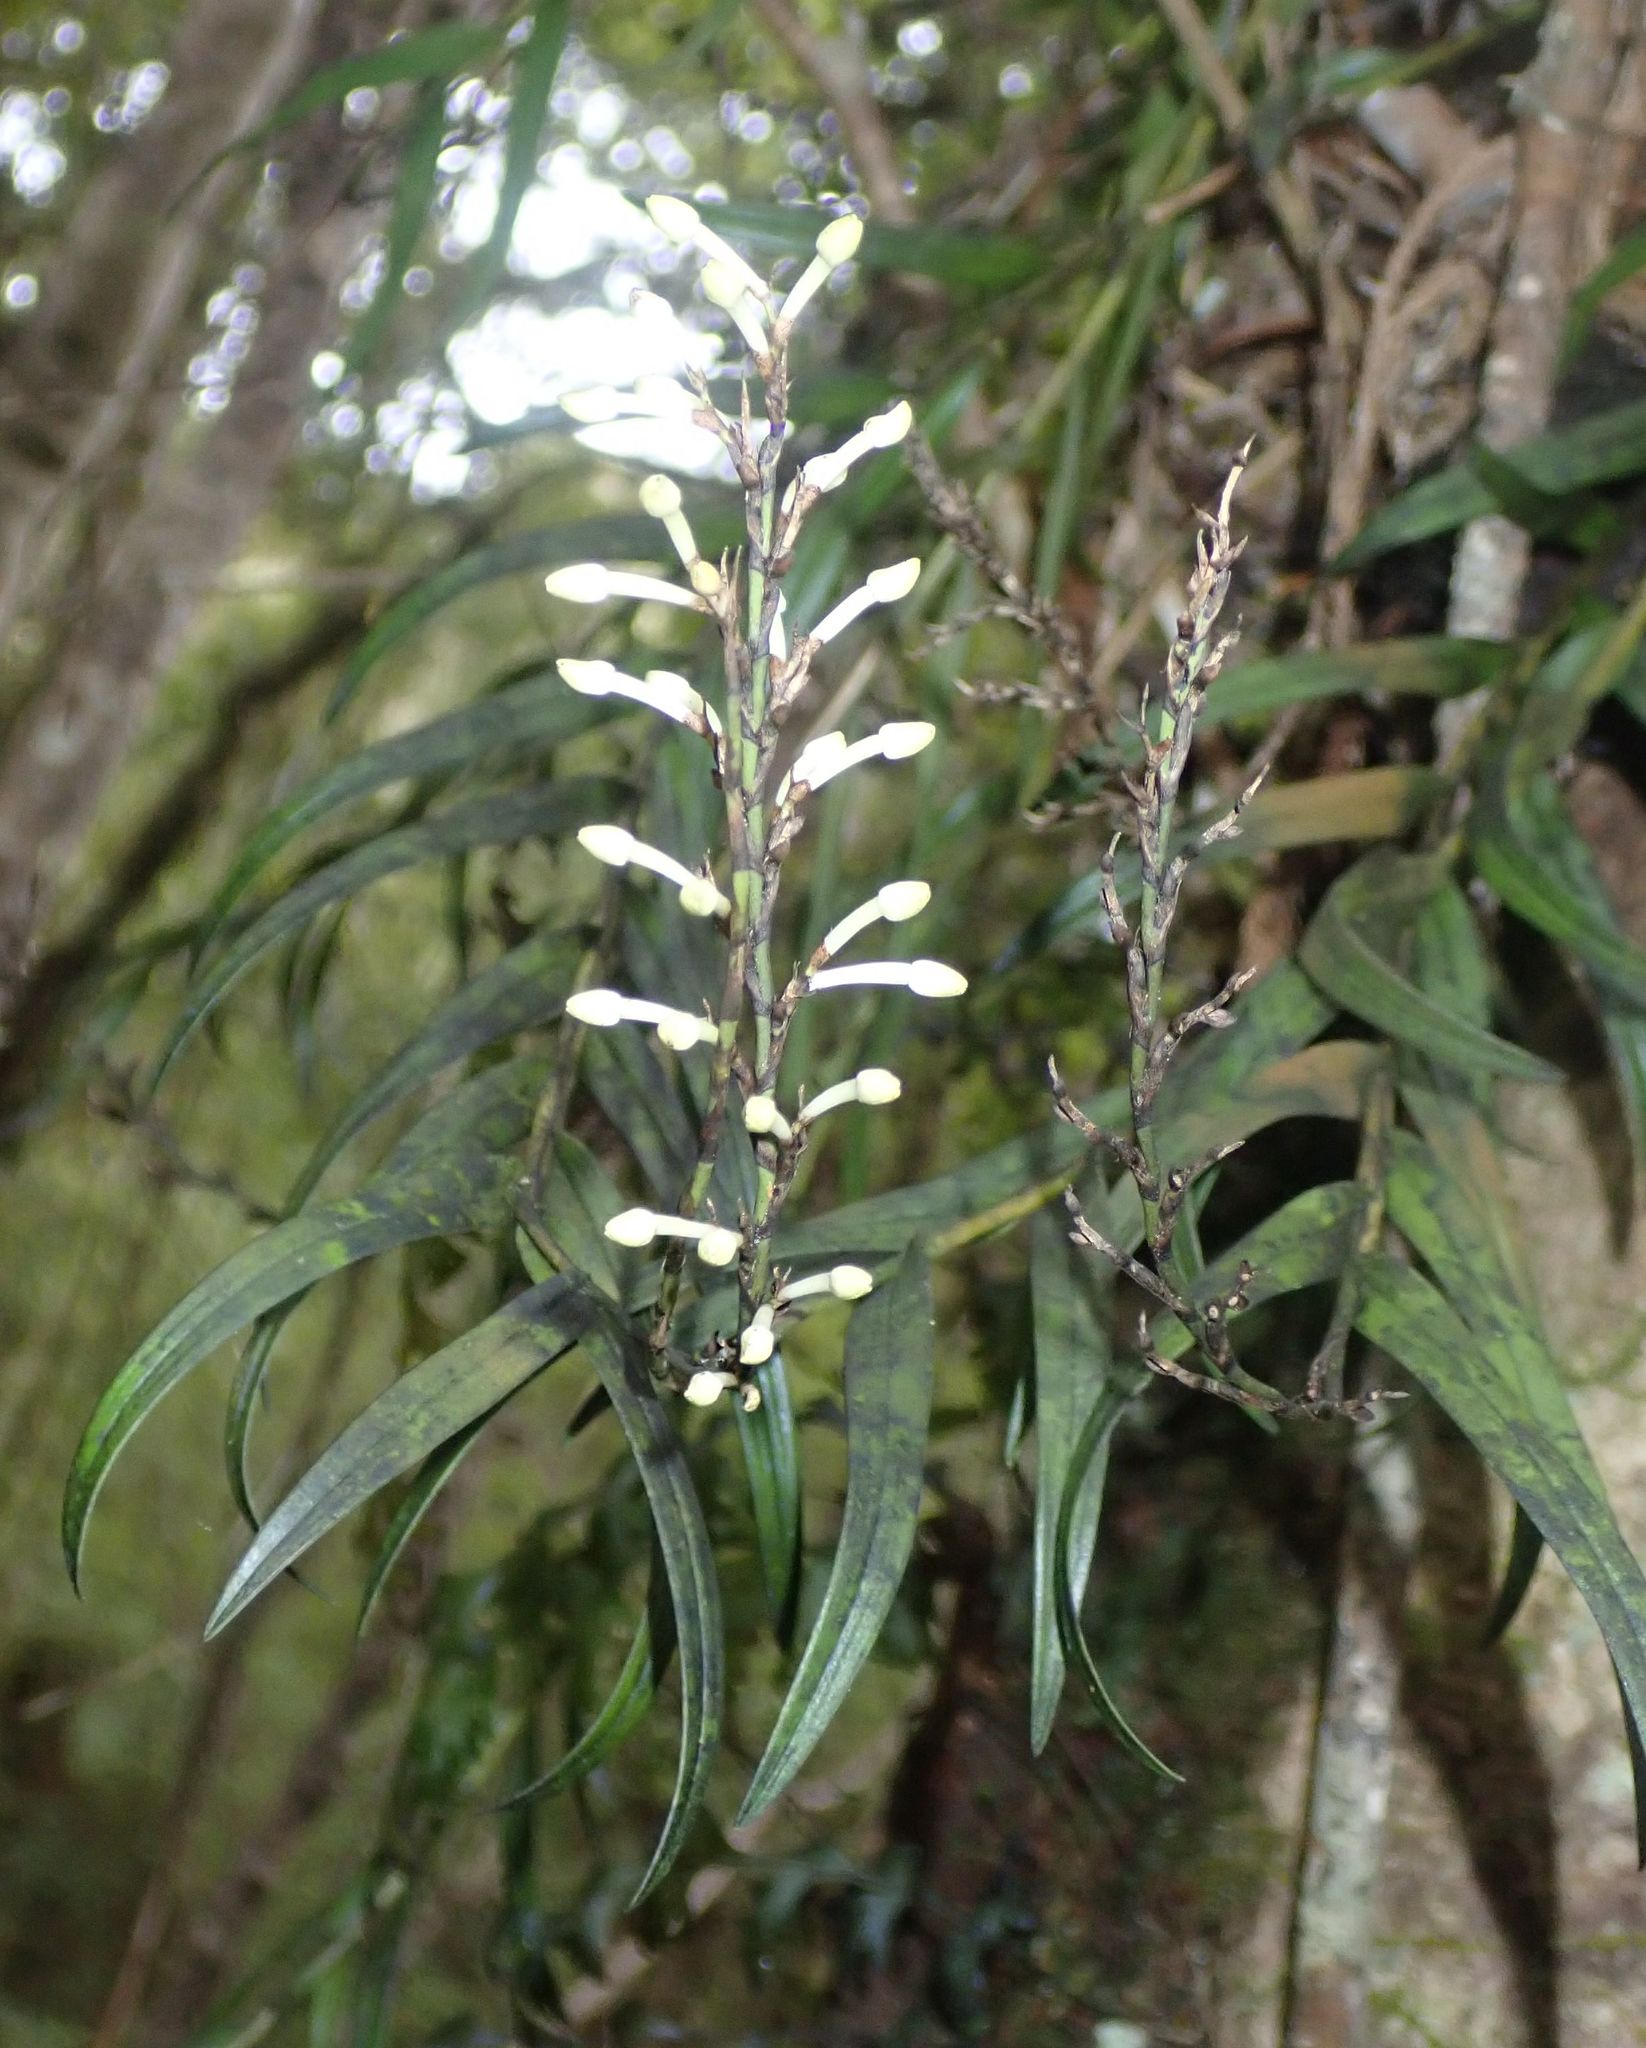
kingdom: Plantae
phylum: Tracheophyta
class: Liliopsida
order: Asparagales
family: Orchidaceae
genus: Earina
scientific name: Earina autumnalis
